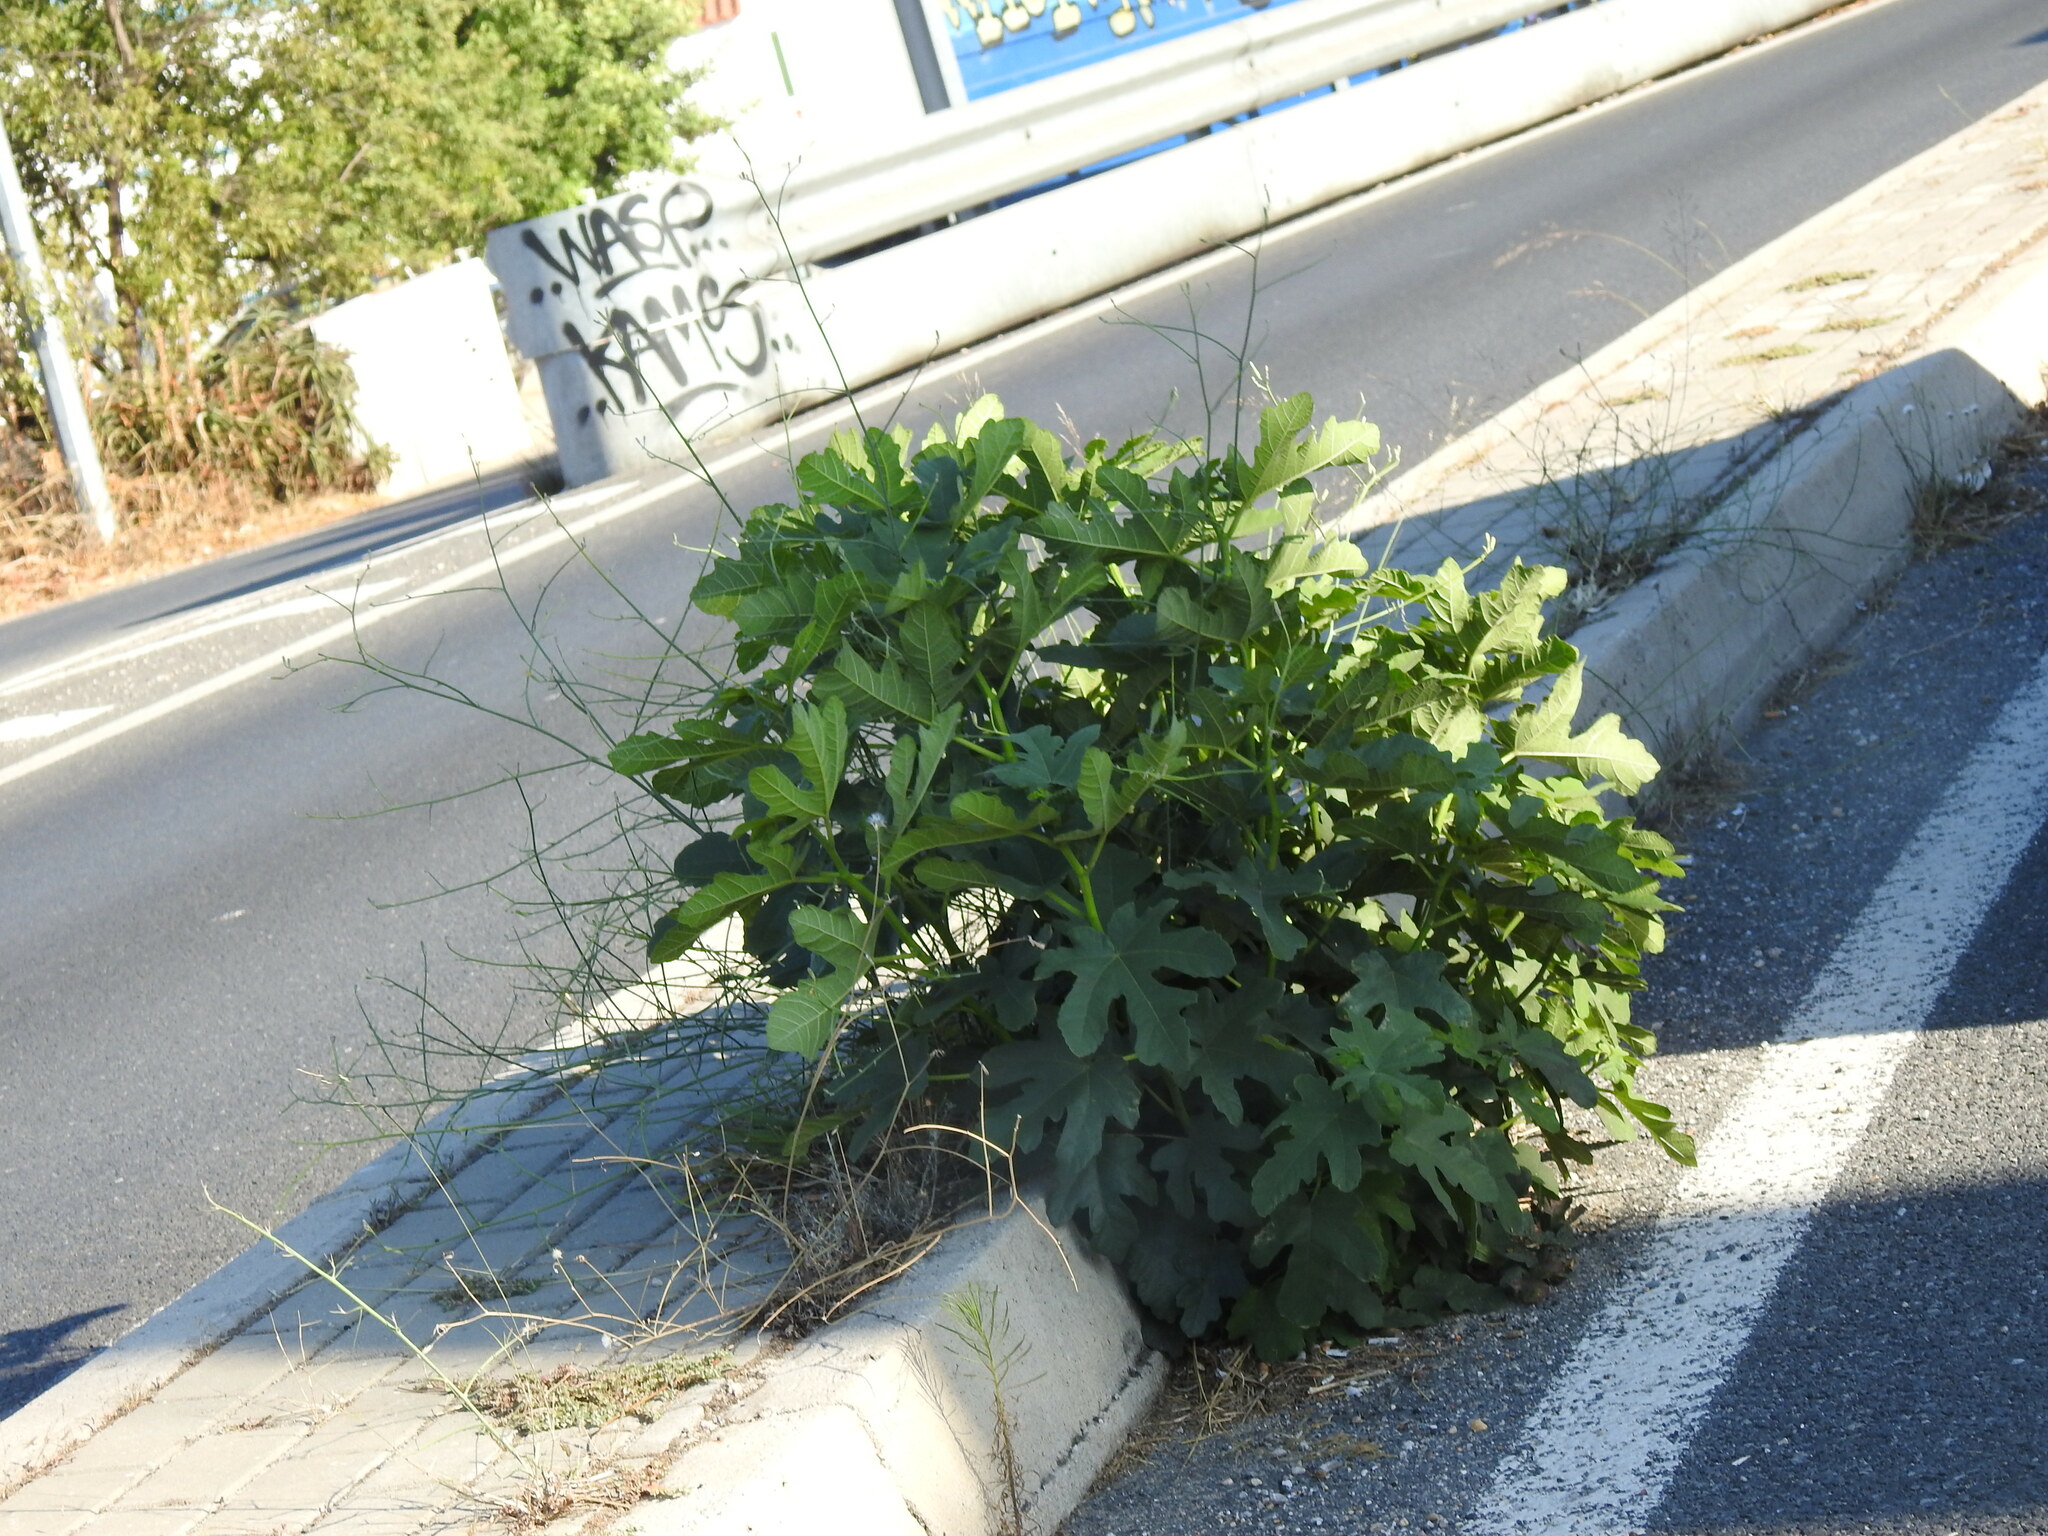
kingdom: Plantae
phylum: Tracheophyta
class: Magnoliopsida
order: Rosales
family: Moraceae
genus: Ficus
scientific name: Ficus carica
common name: Fig
